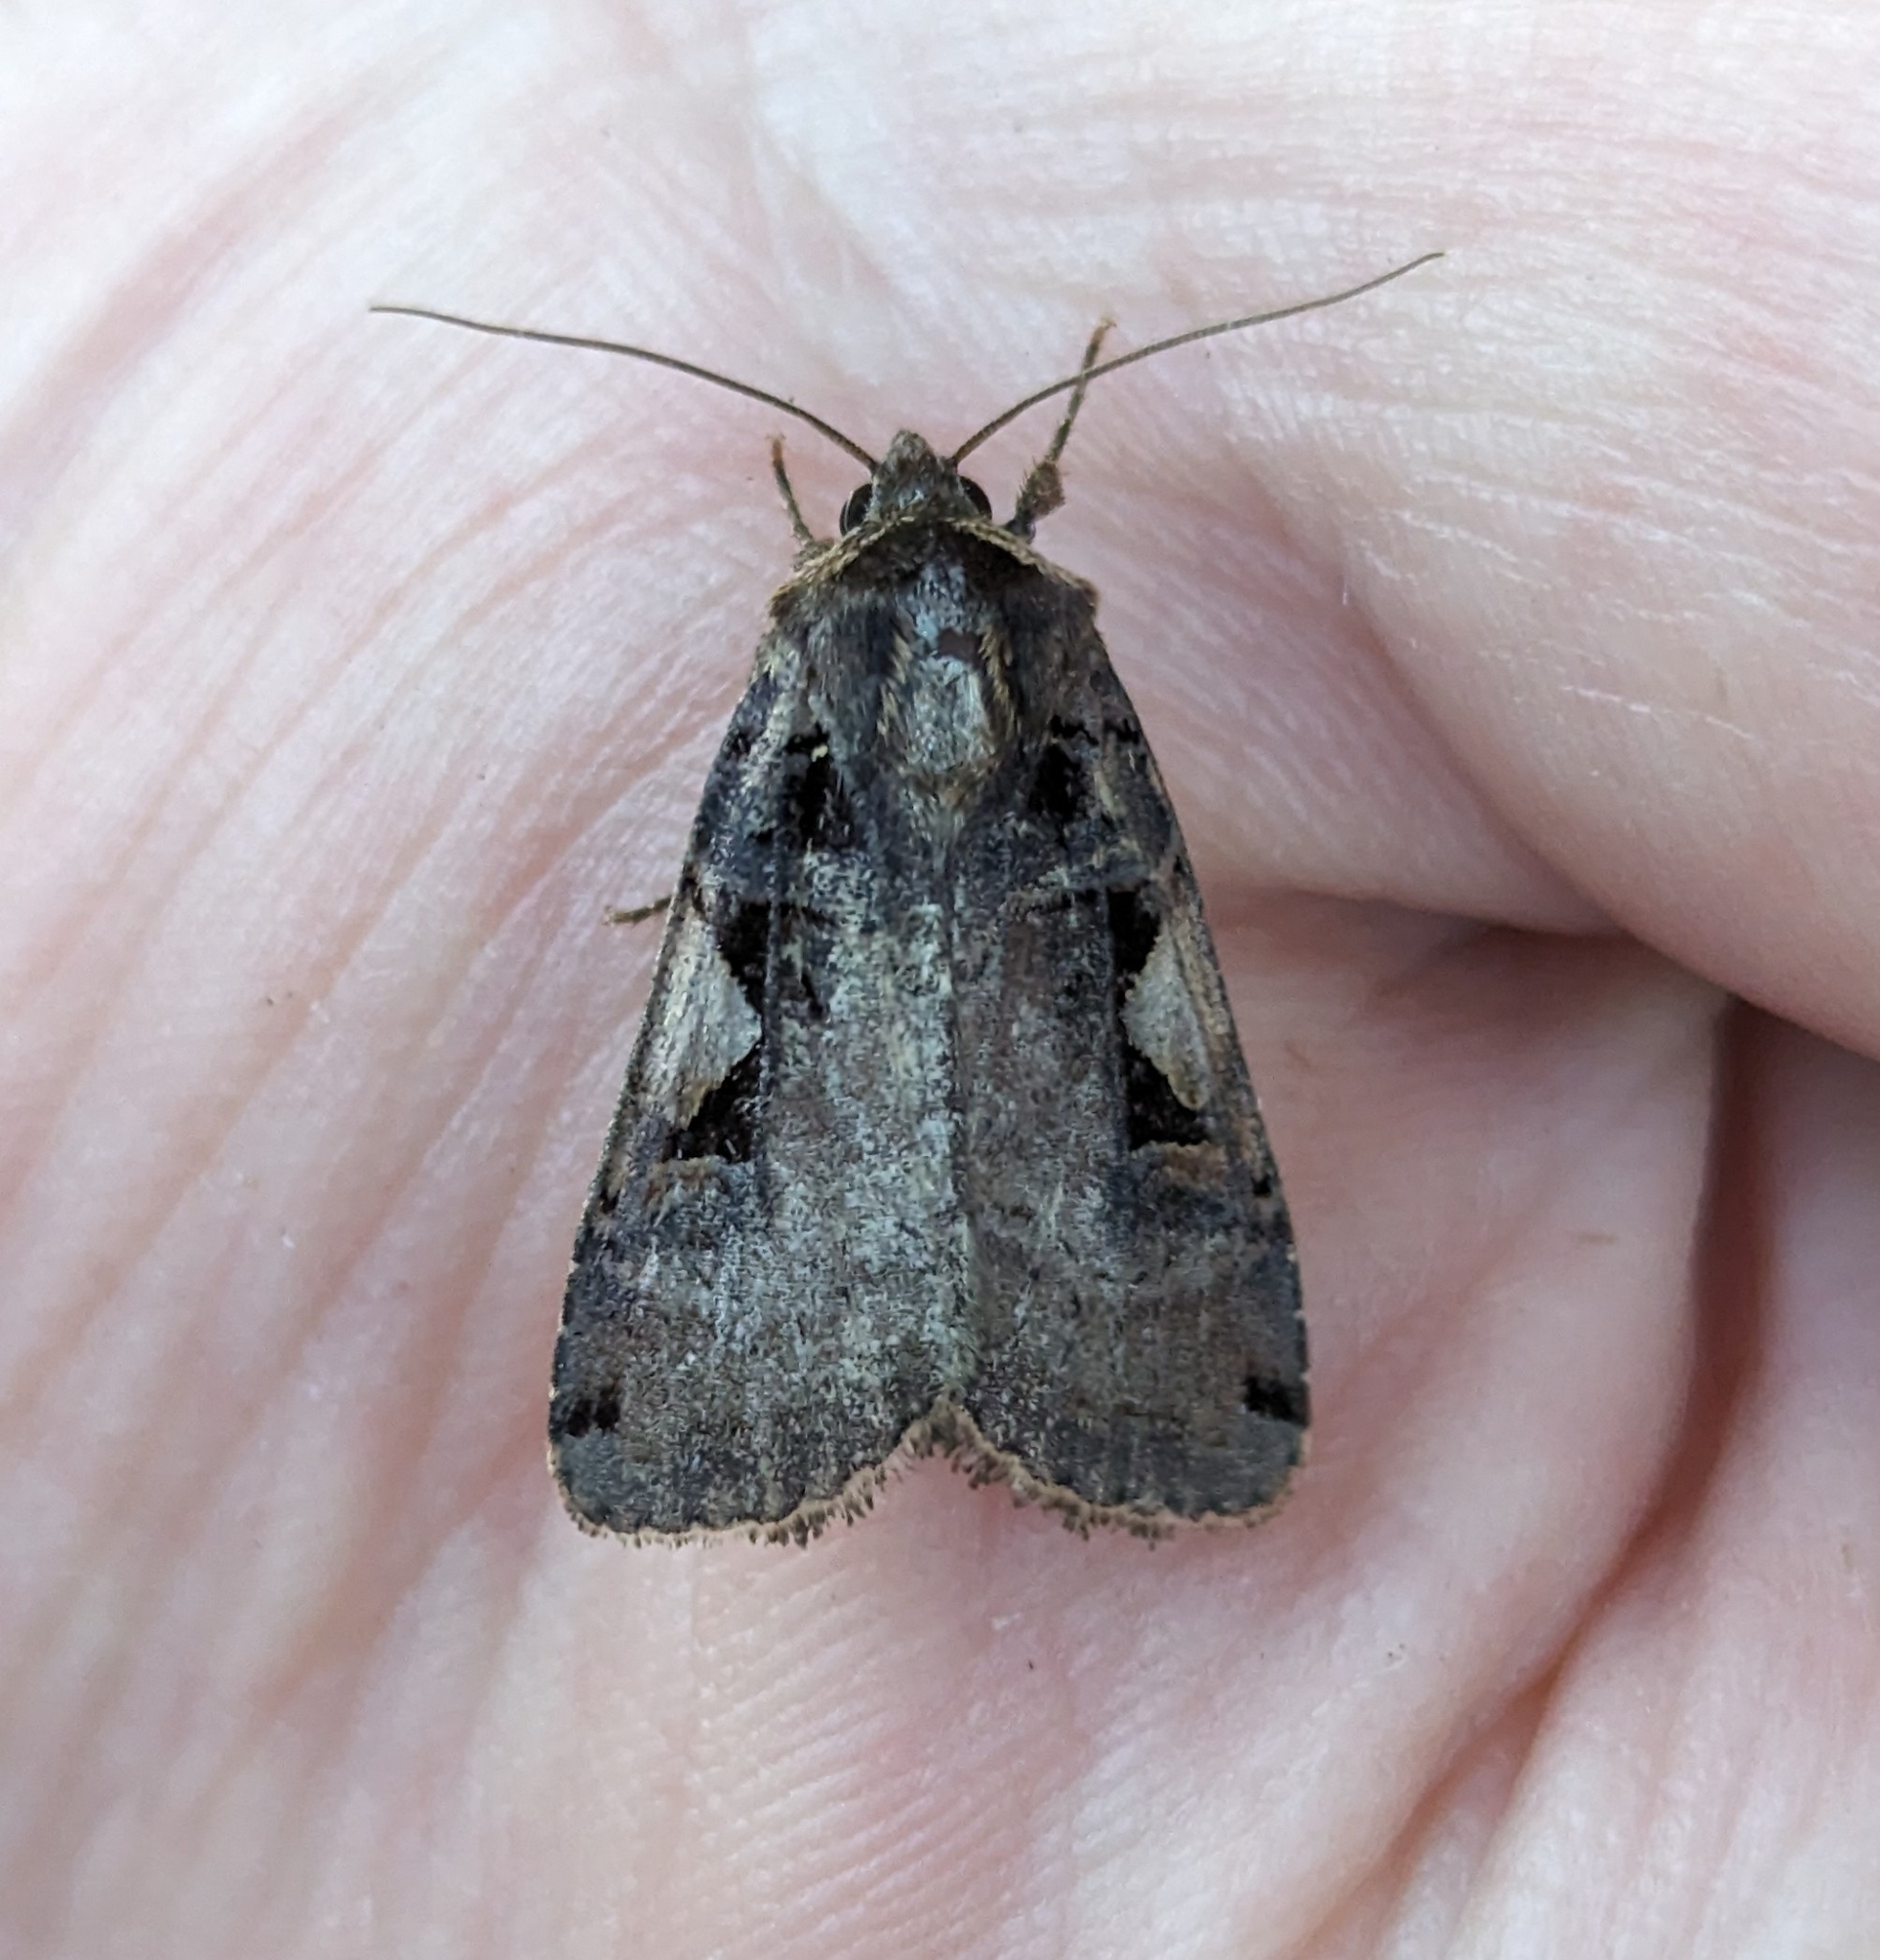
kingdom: Animalia
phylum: Arthropoda
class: Insecta
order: Lepidoptera
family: Noctuidae
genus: Xestia
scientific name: Xestia c-nigrum
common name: Setaceous hebrew character
